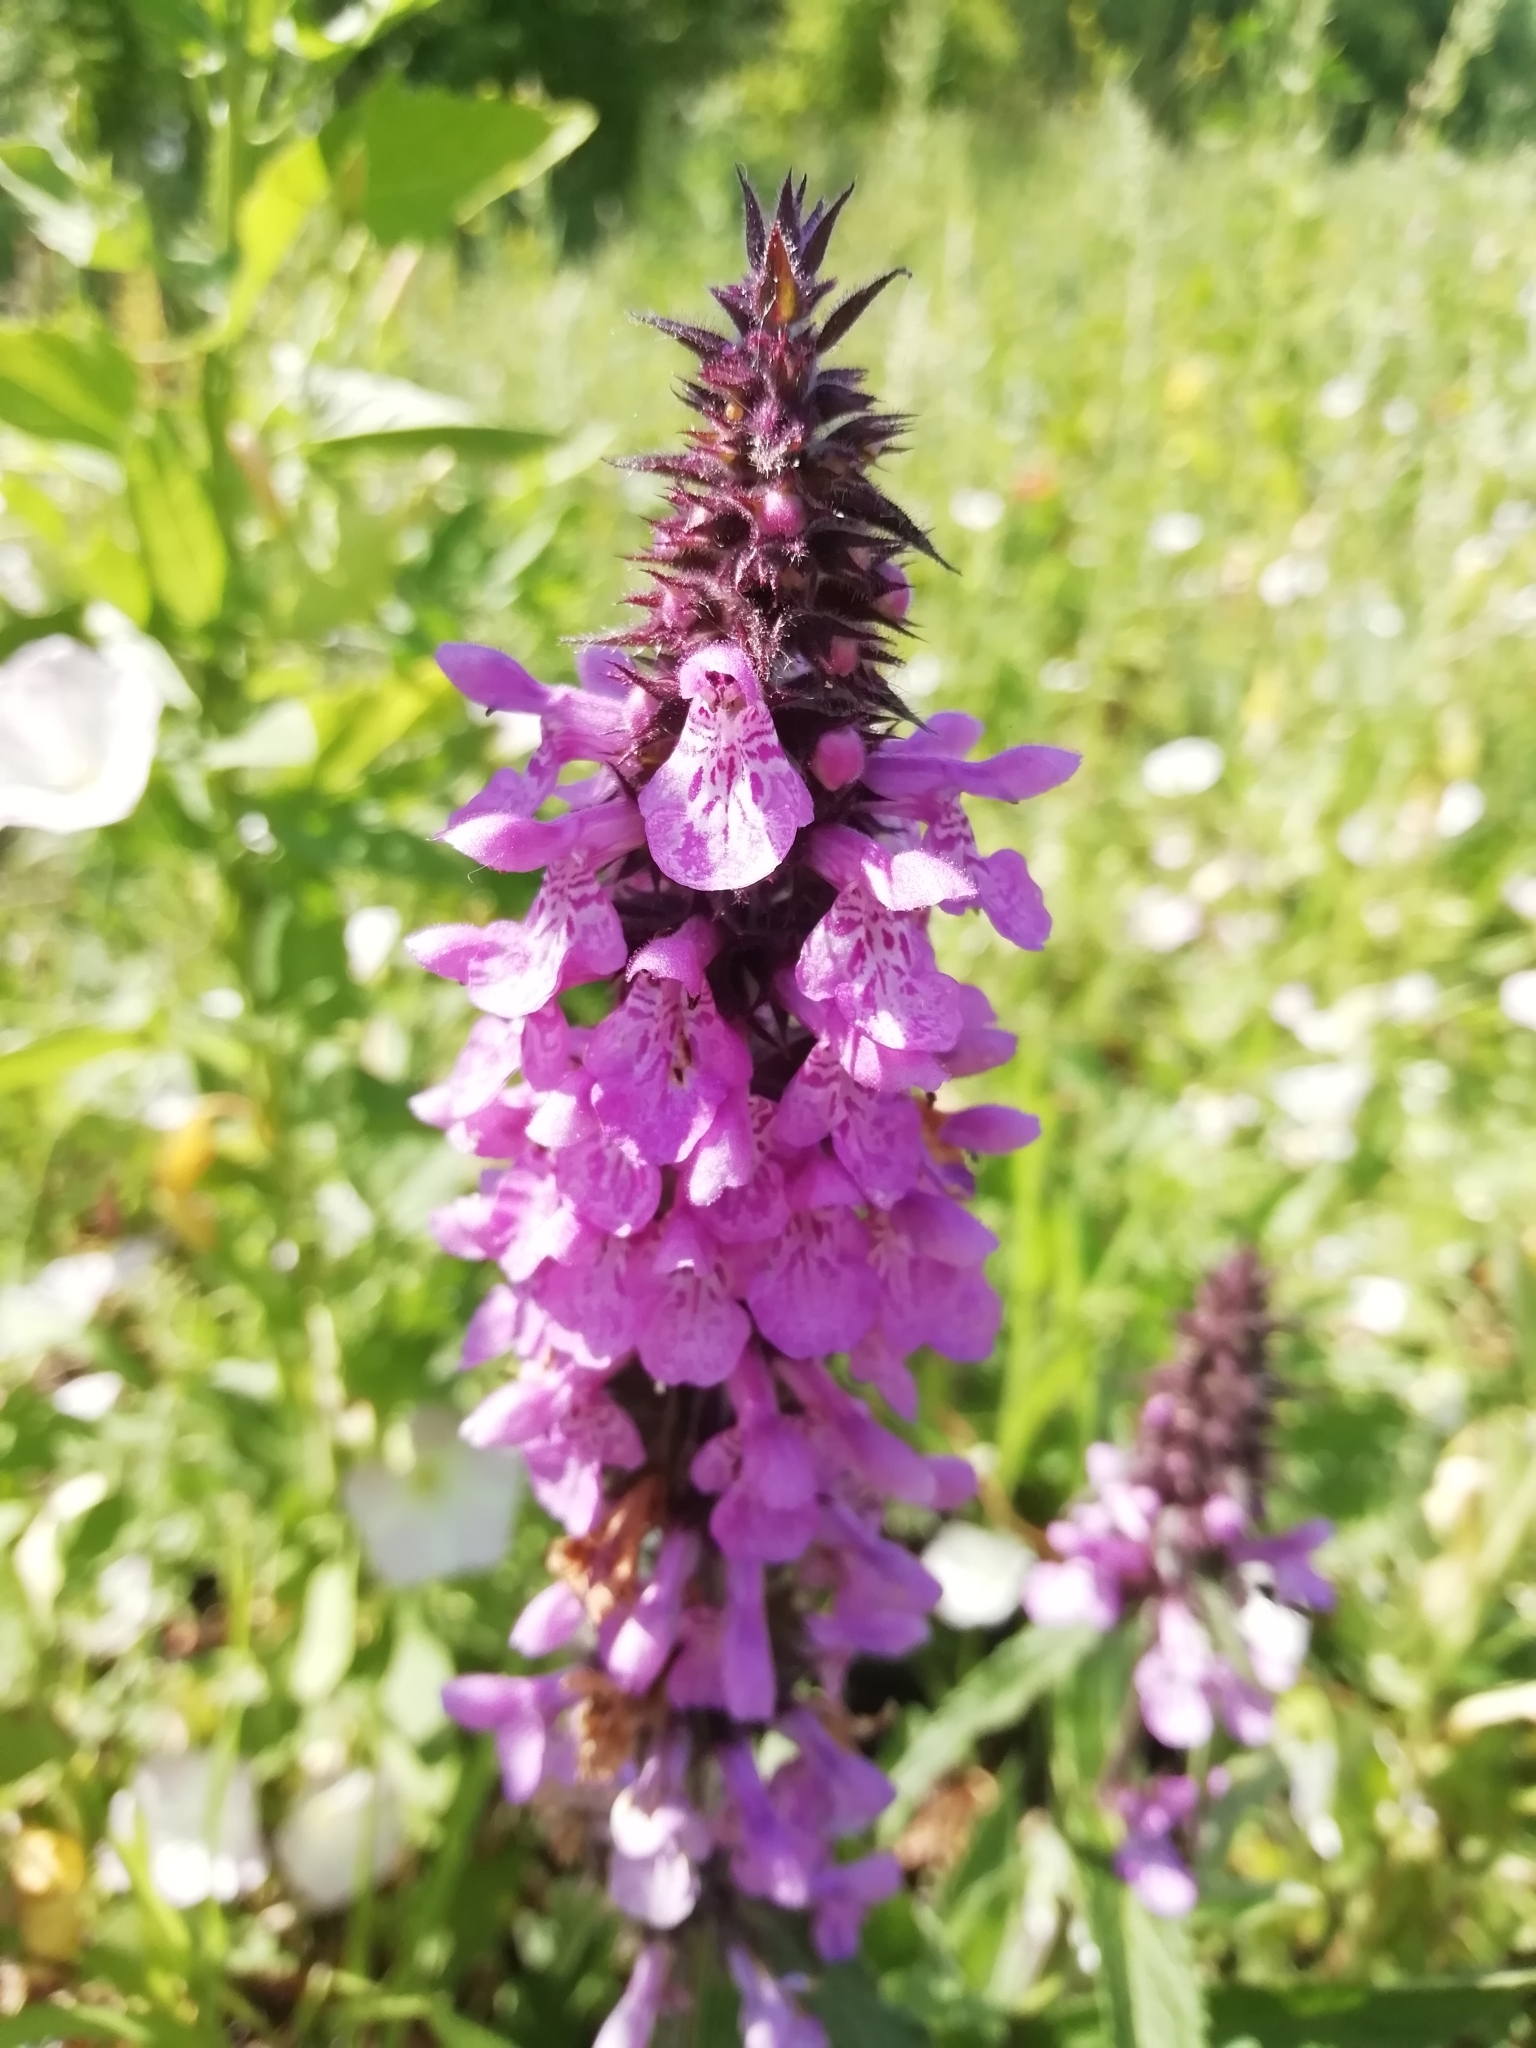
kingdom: Plantae
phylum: Tracheophyta
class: Magnoliopsida
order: Lamiales
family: Lamiaceae
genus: Stachys
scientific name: Stachys palustris
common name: Marsh woundwort
